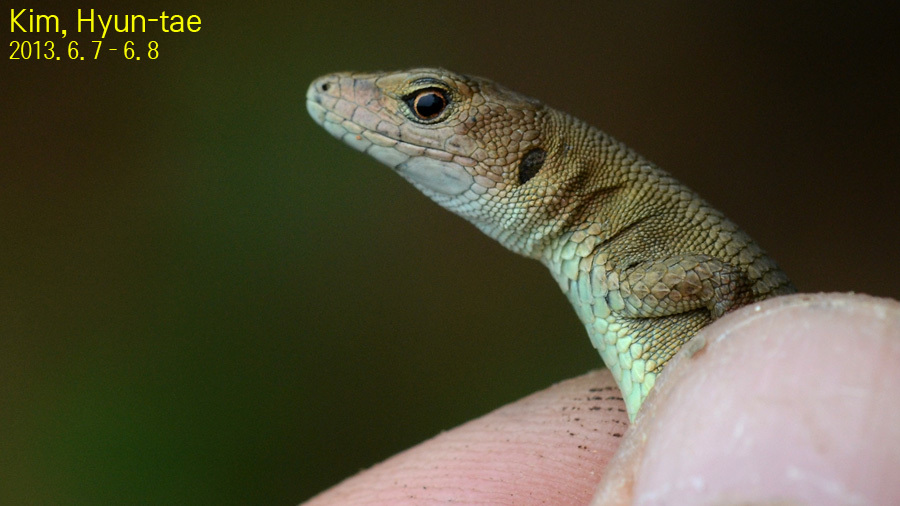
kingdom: Animalia
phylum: Chordata
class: Squamata
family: Lacertidae
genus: Takydromus
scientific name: Takydromus amurensis
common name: Amur grass lizard
